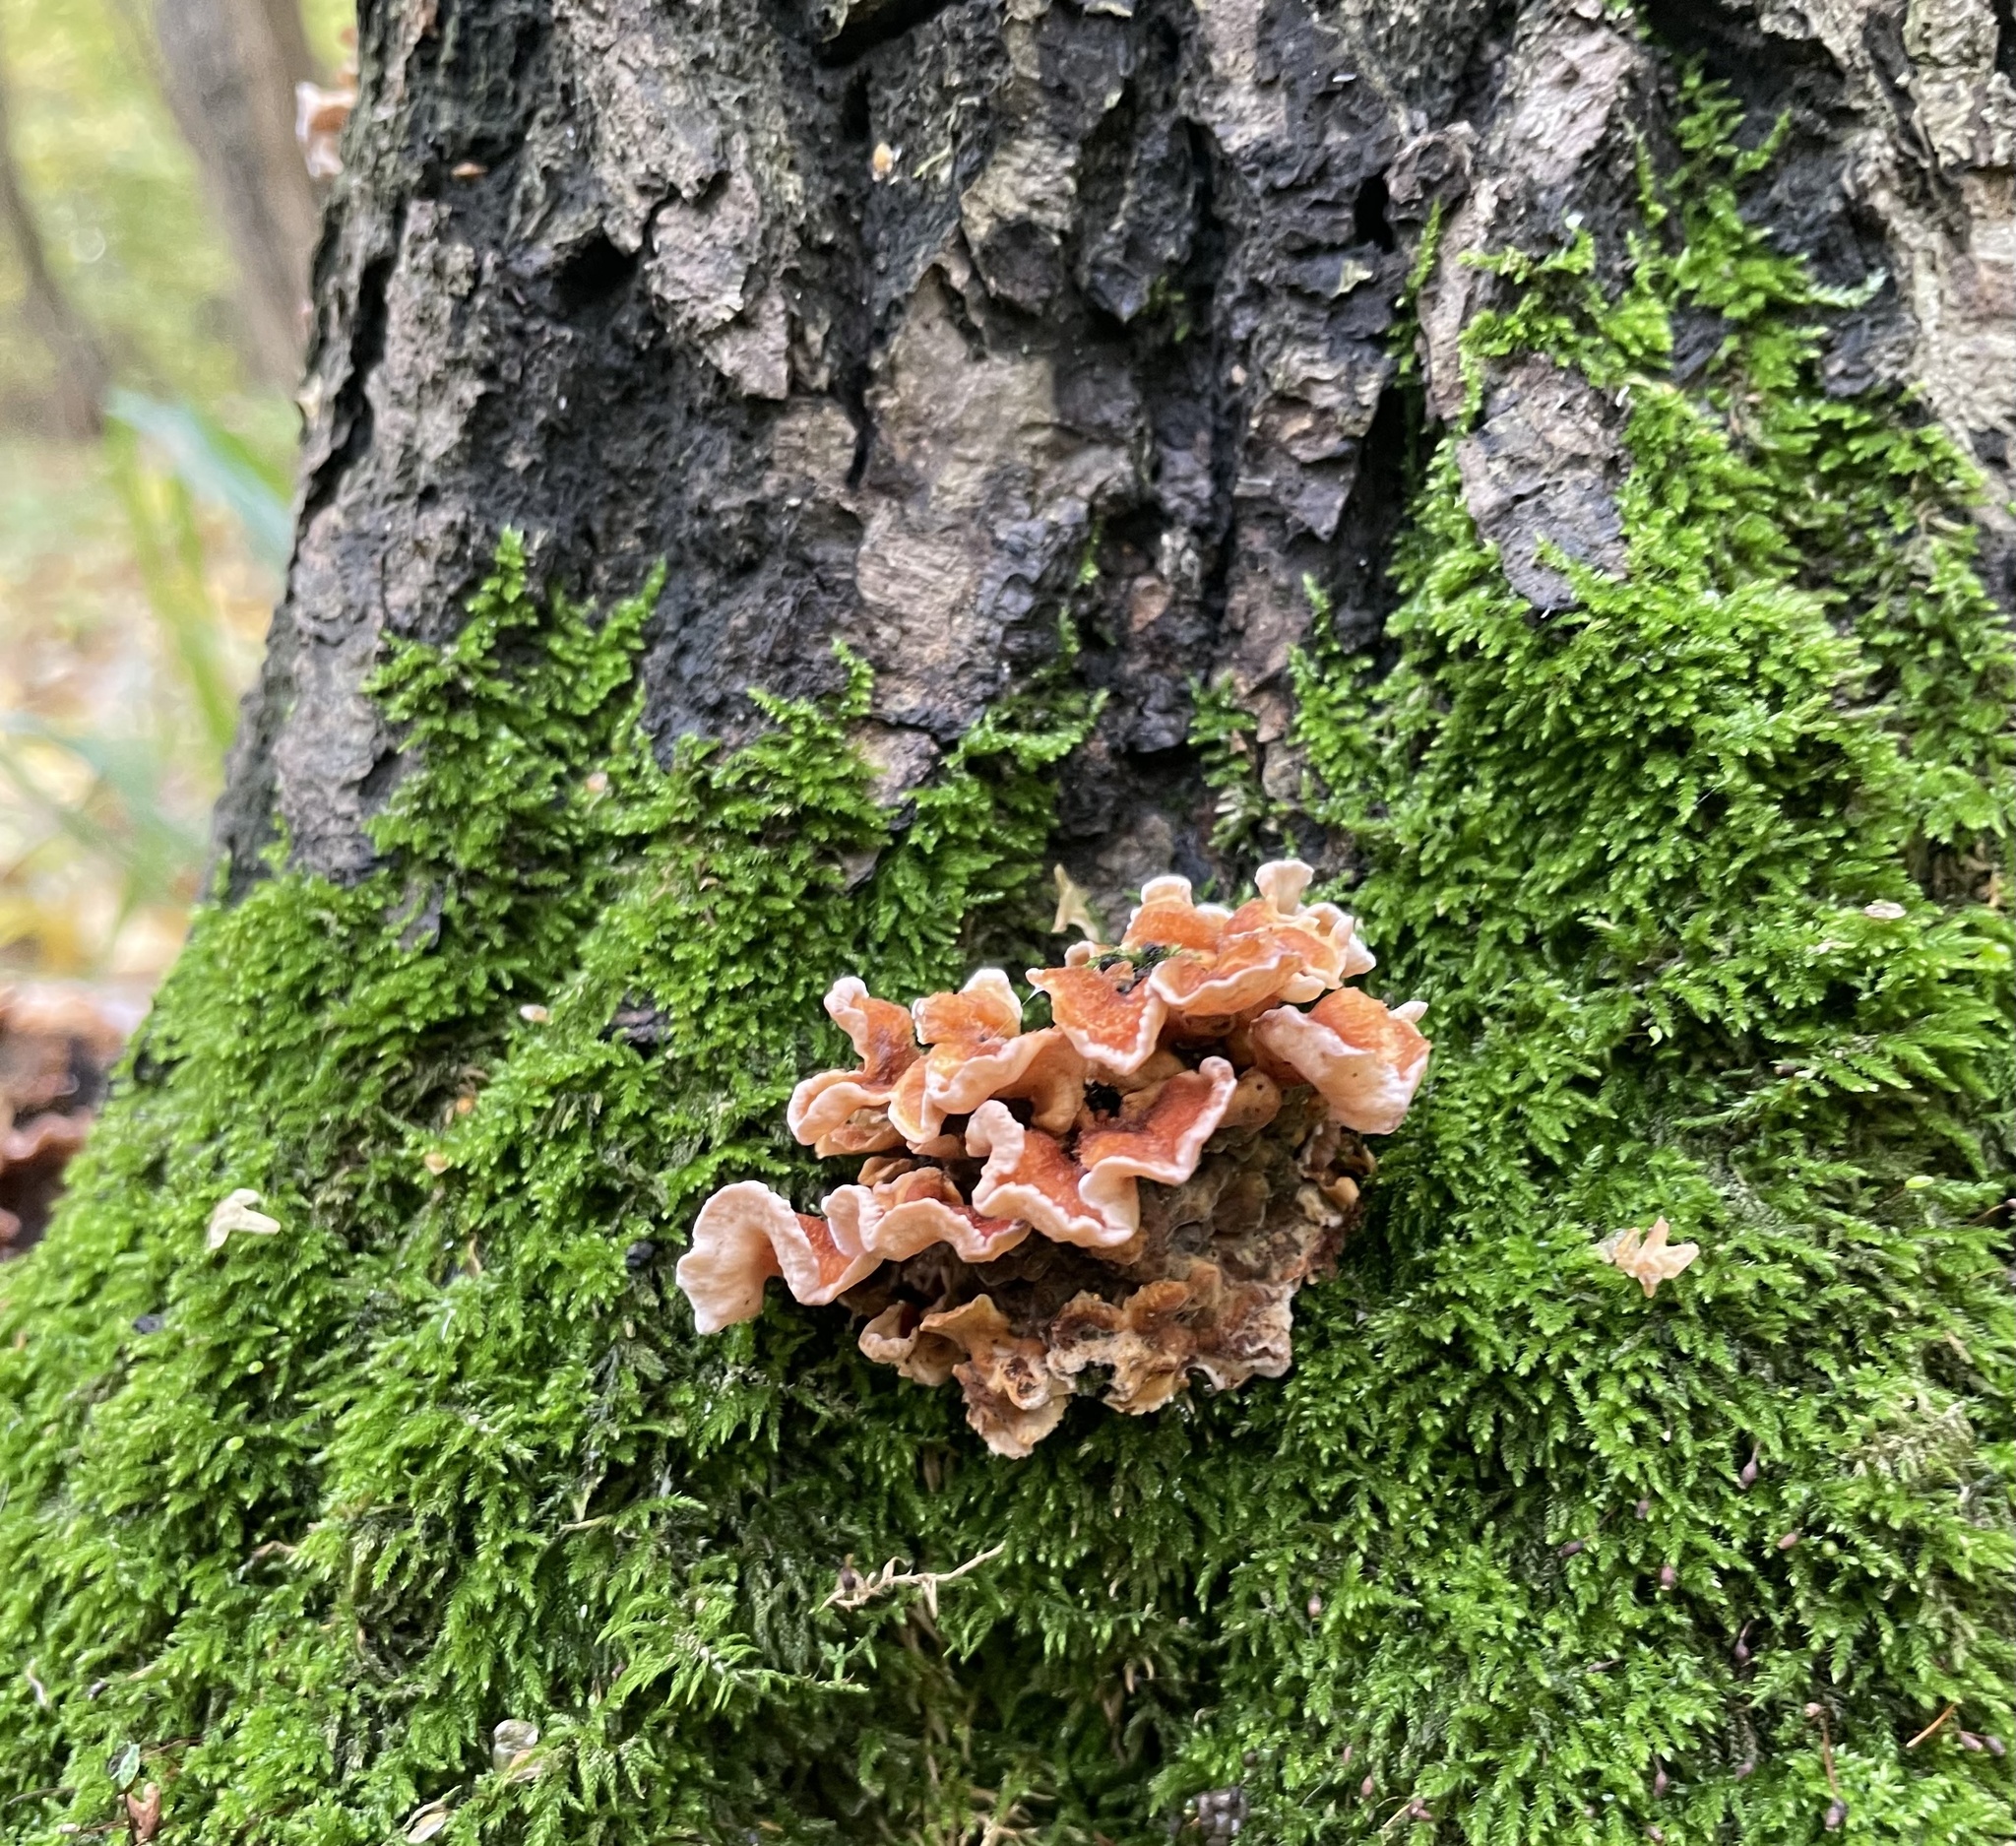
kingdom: Fungi
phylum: Basidiomycota
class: Agaricomycetes
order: Russulales
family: Stereaceae
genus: Stereum
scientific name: Stereum hirsutum
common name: Hairy curtain crust
